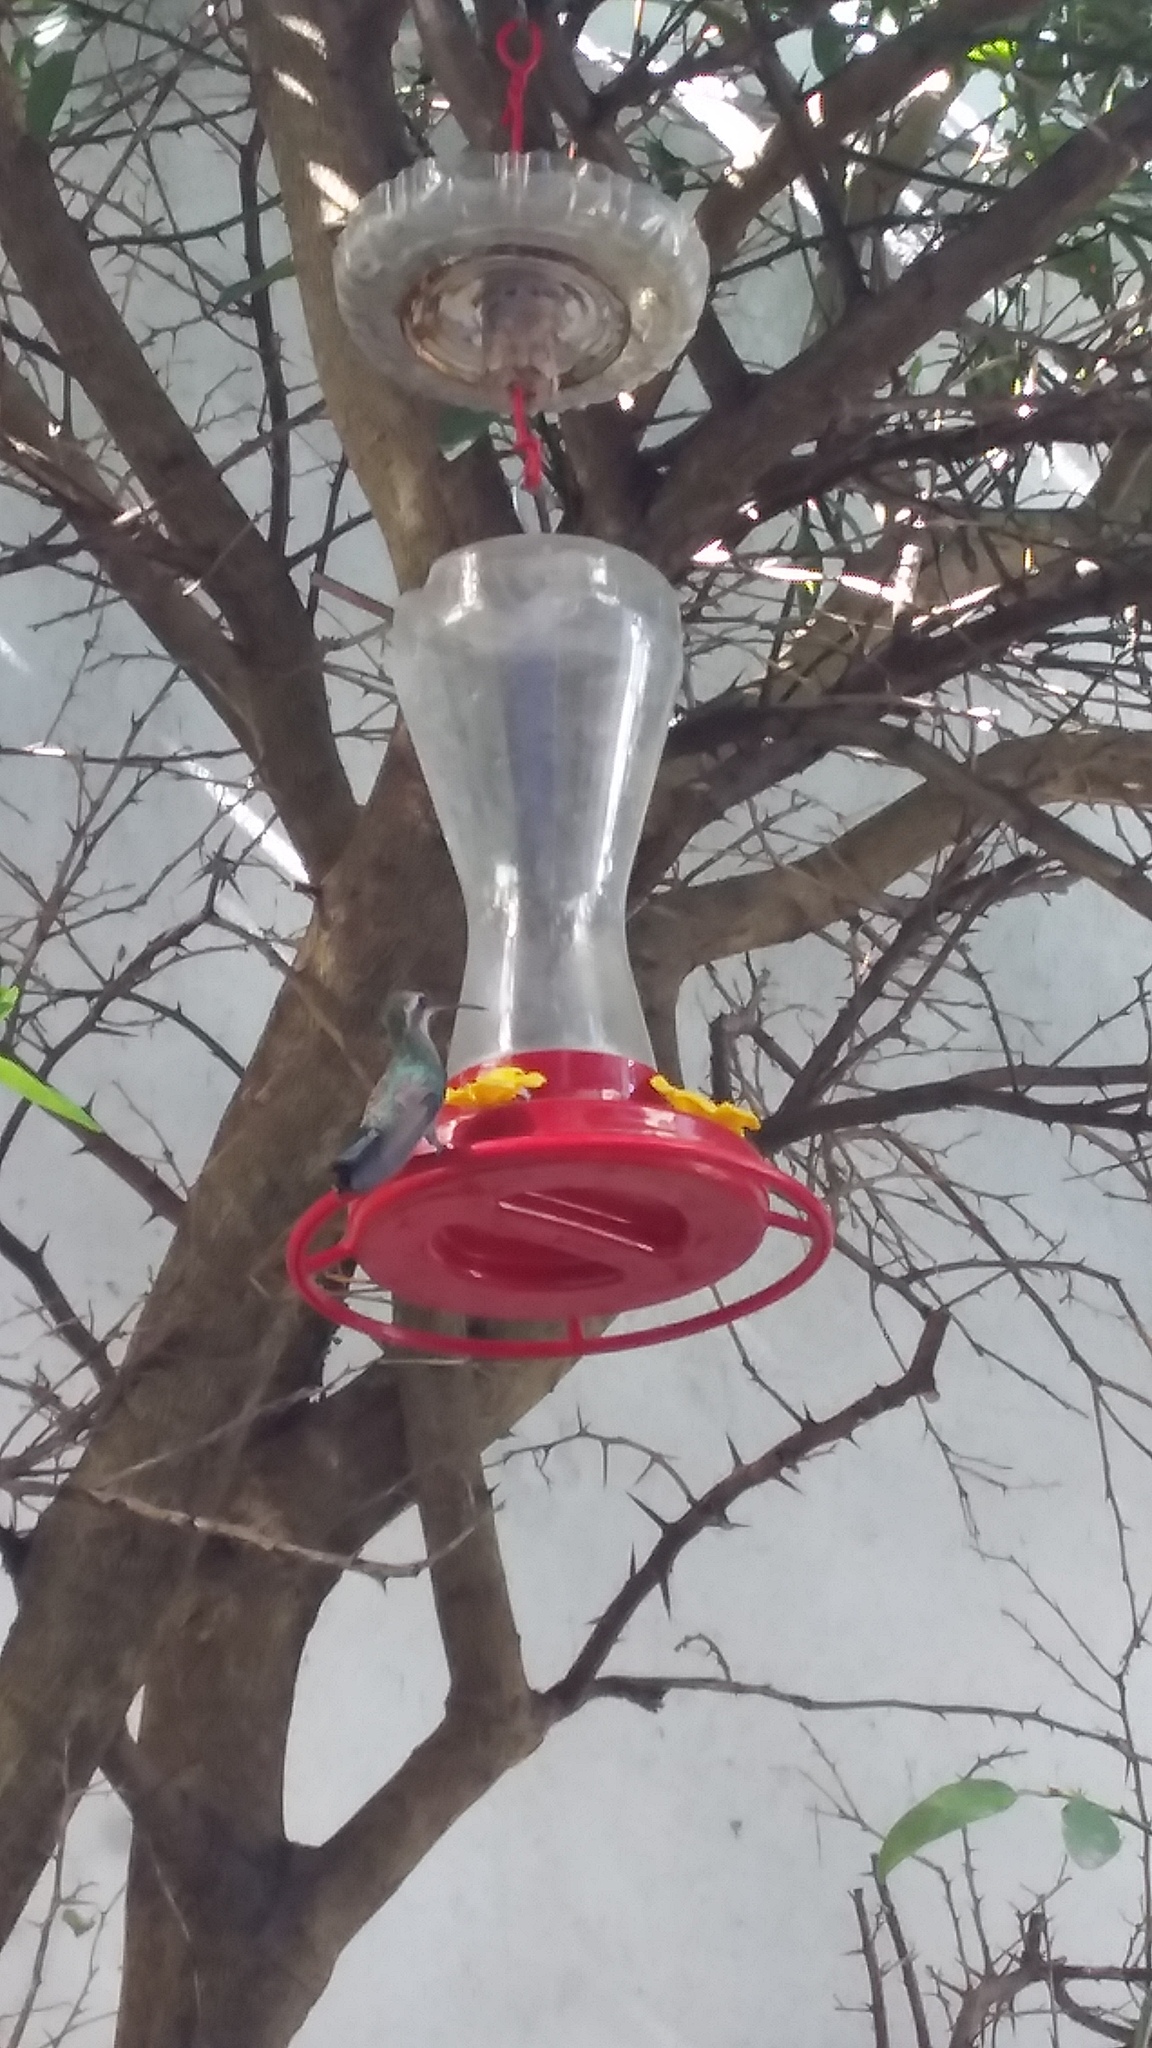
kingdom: Animalia
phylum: Chordata
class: Aves
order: Apodiformes
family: Trochilidae
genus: Cynanthus
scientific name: Cynanthus latirostris
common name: Broad-billed hummingbird
